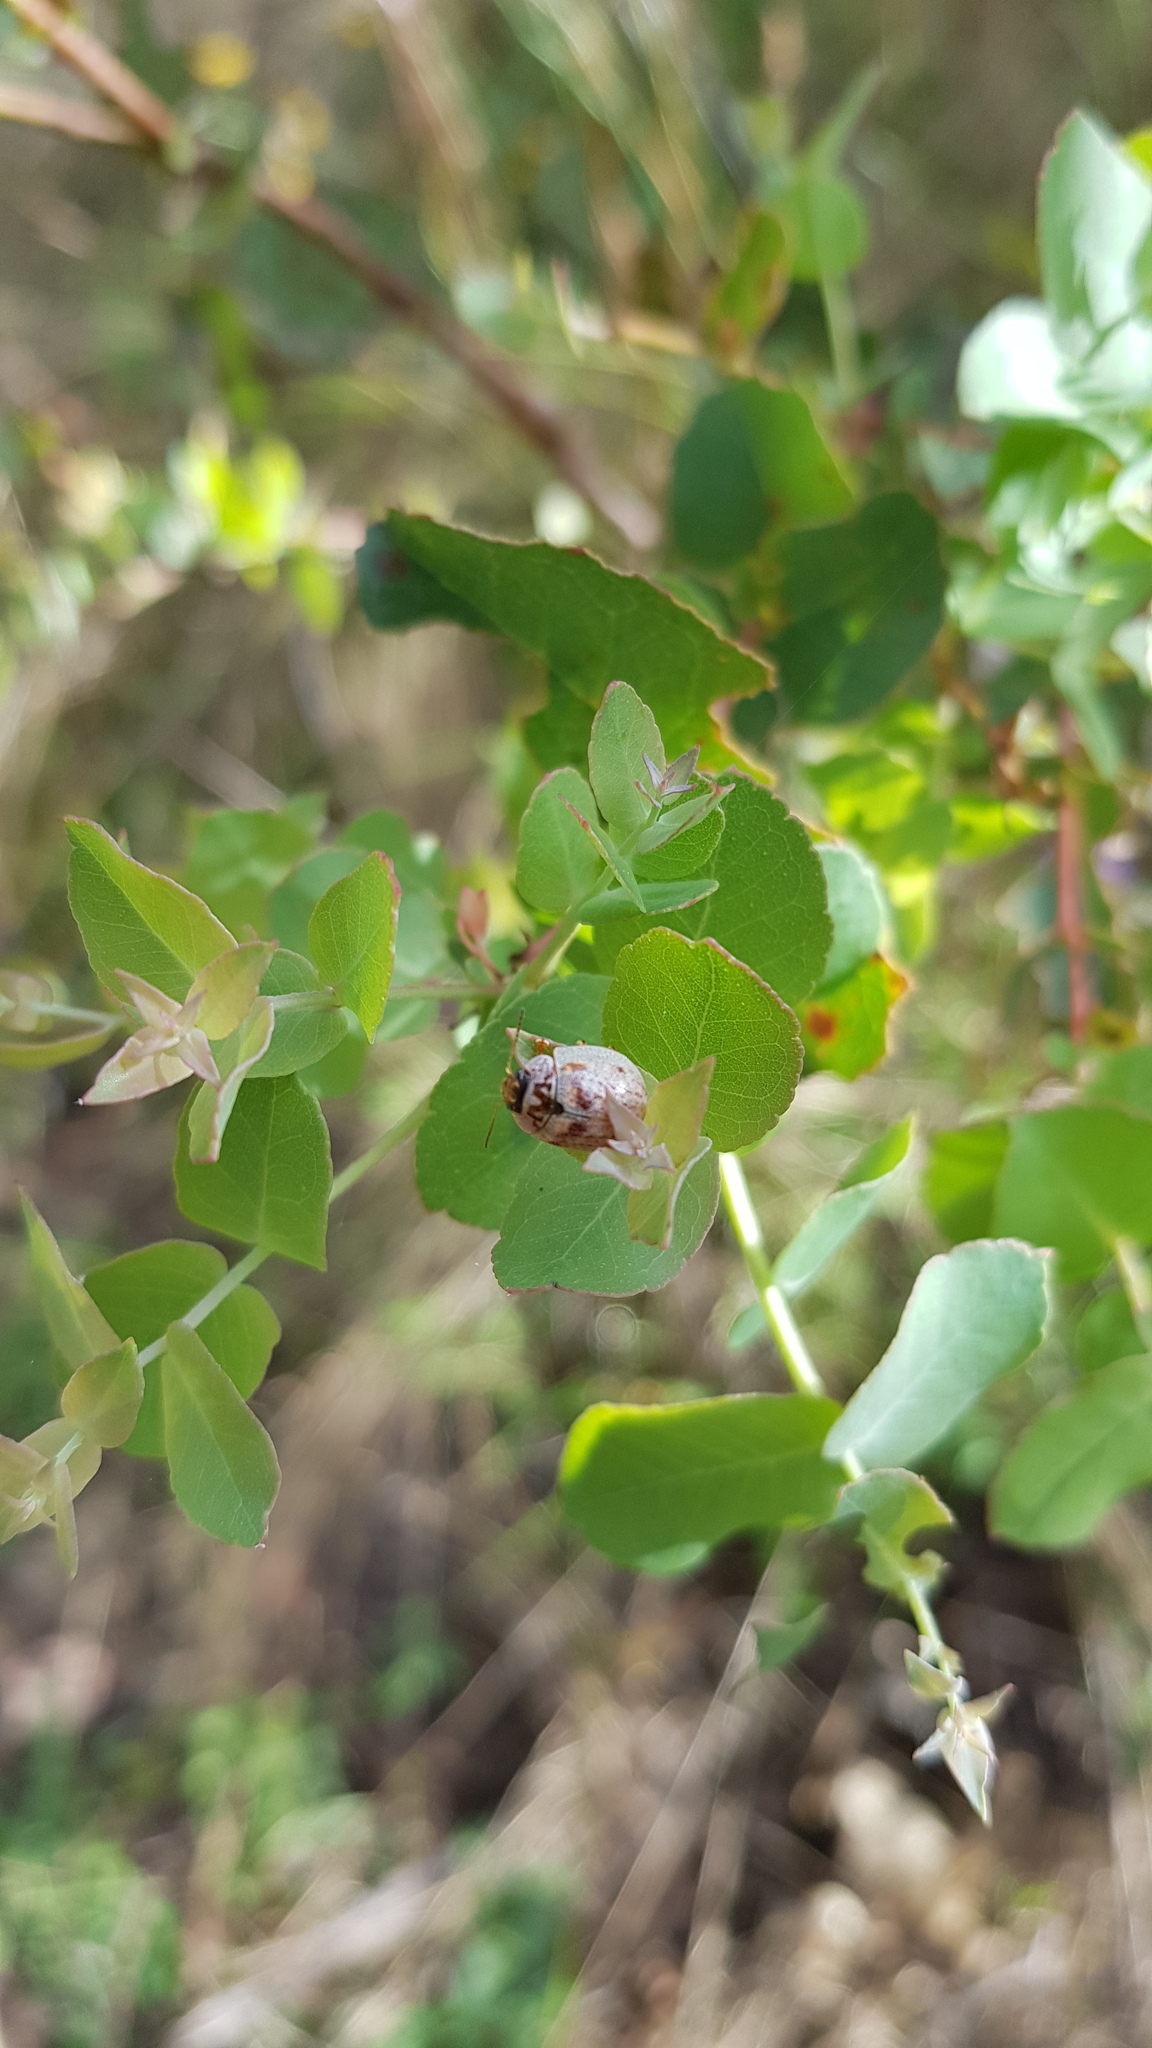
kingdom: Animalia
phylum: Arthropoda
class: Insecta
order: Coleoptera
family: Chrysomelidae
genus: Paropsisterna
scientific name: Paropsisterna m-fuscum
